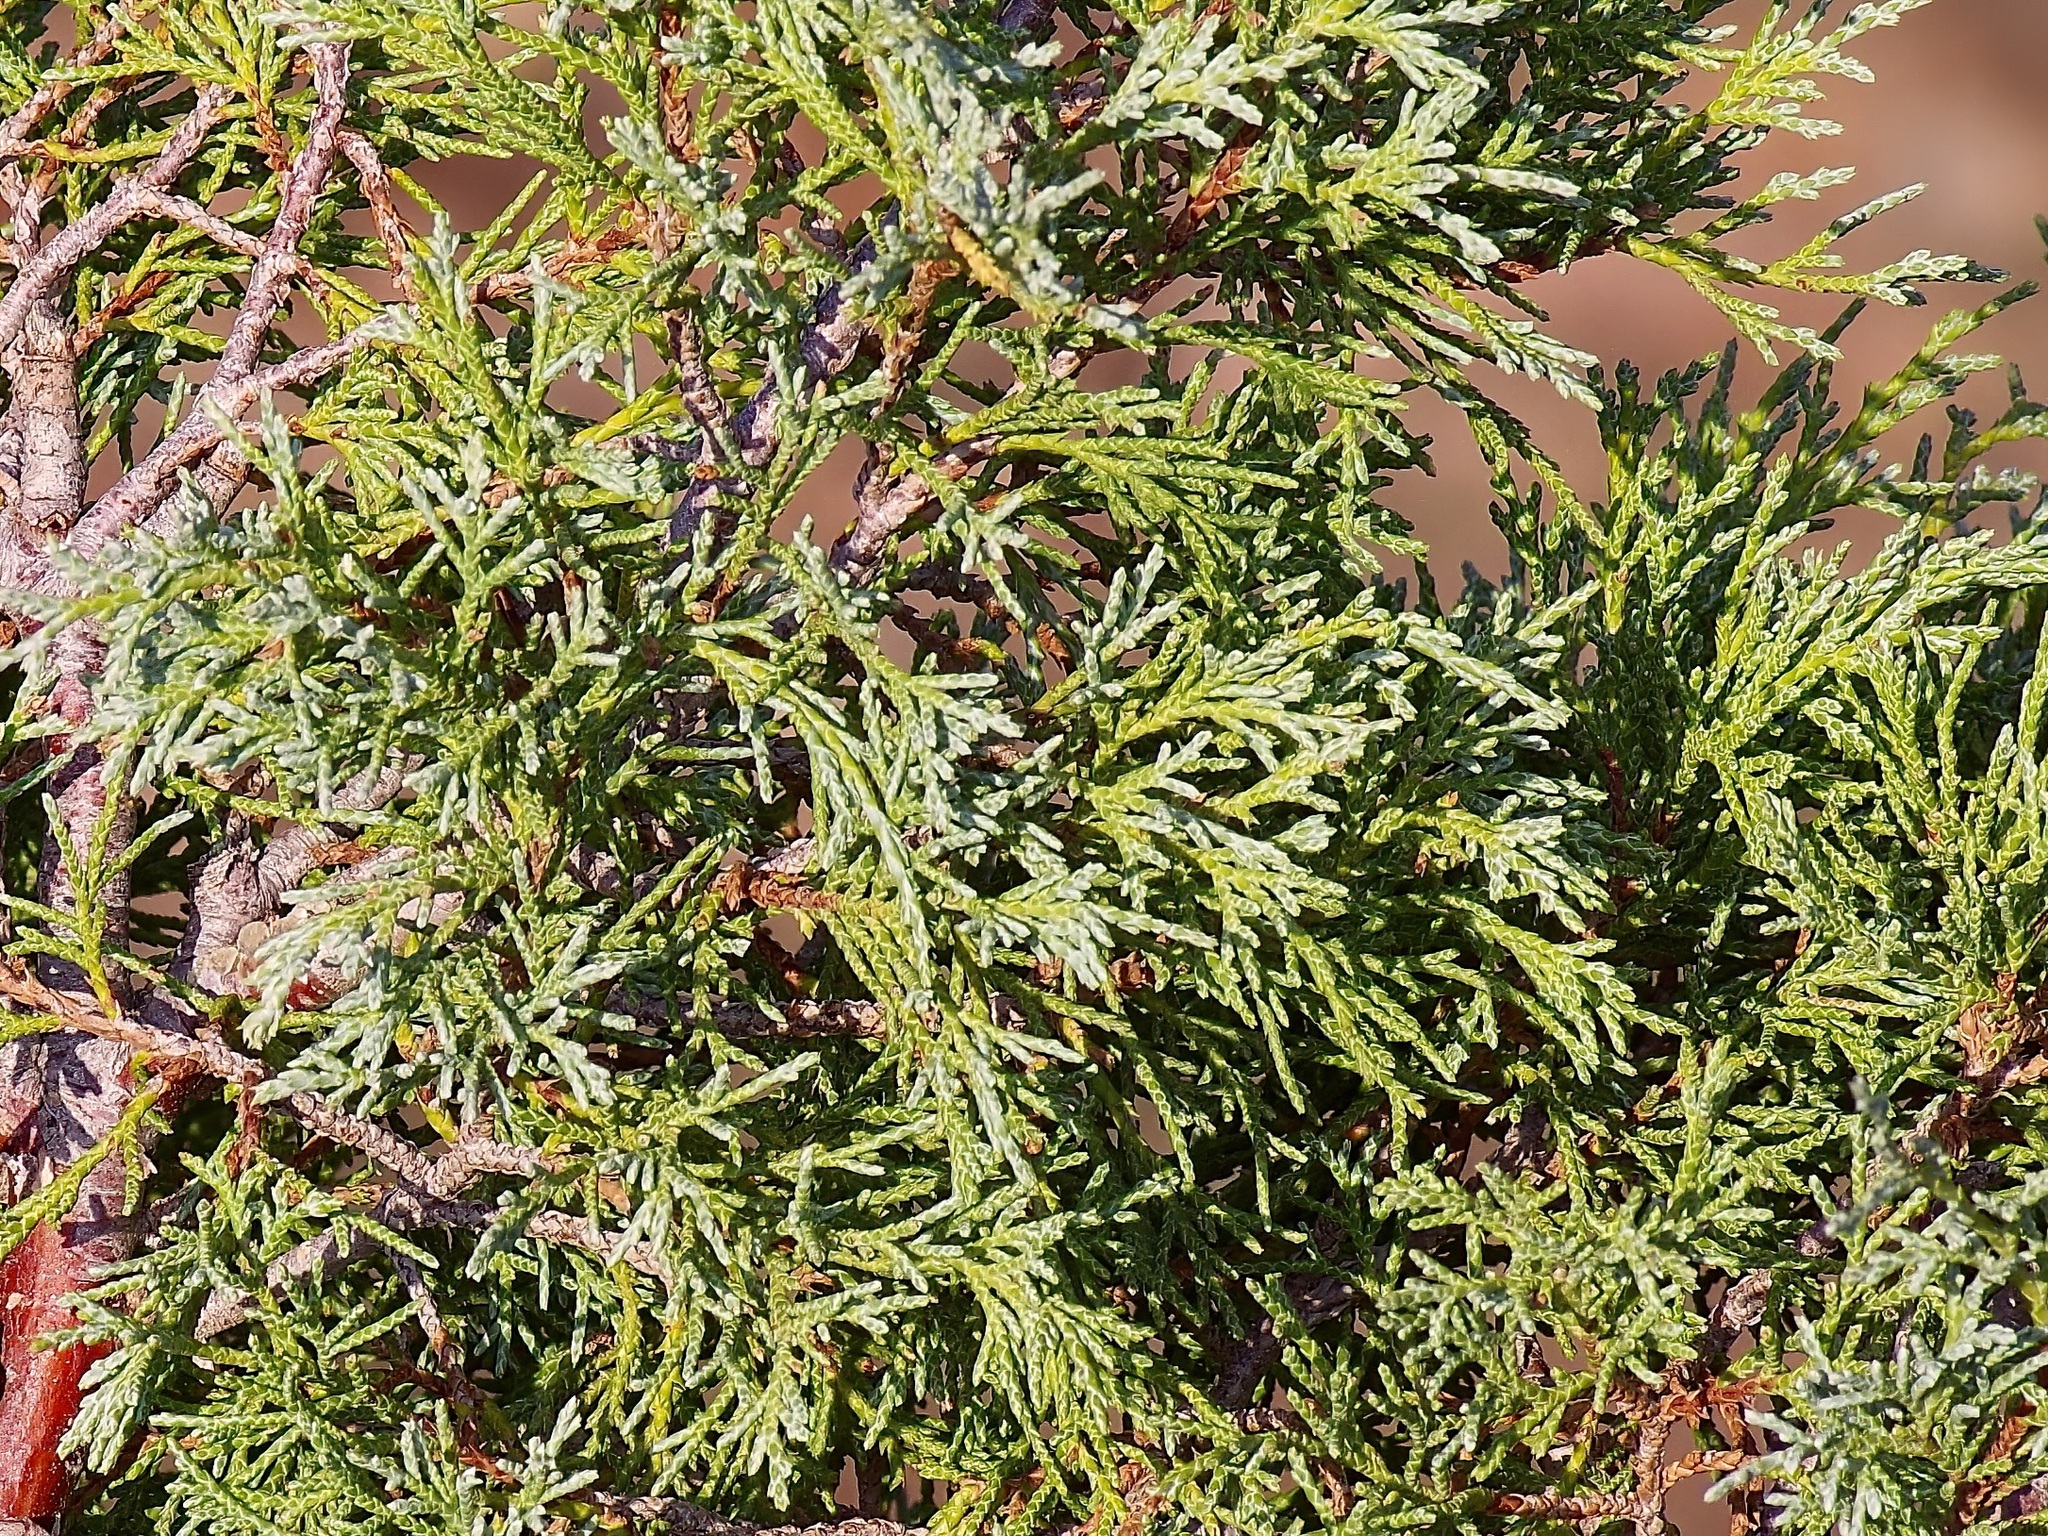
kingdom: Plantae
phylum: Tracheophyta
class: Pinopsida
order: Pinales
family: Cupressaceae
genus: Juniperus
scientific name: Juniperus scopulorum
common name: Rocky mountain juniper
